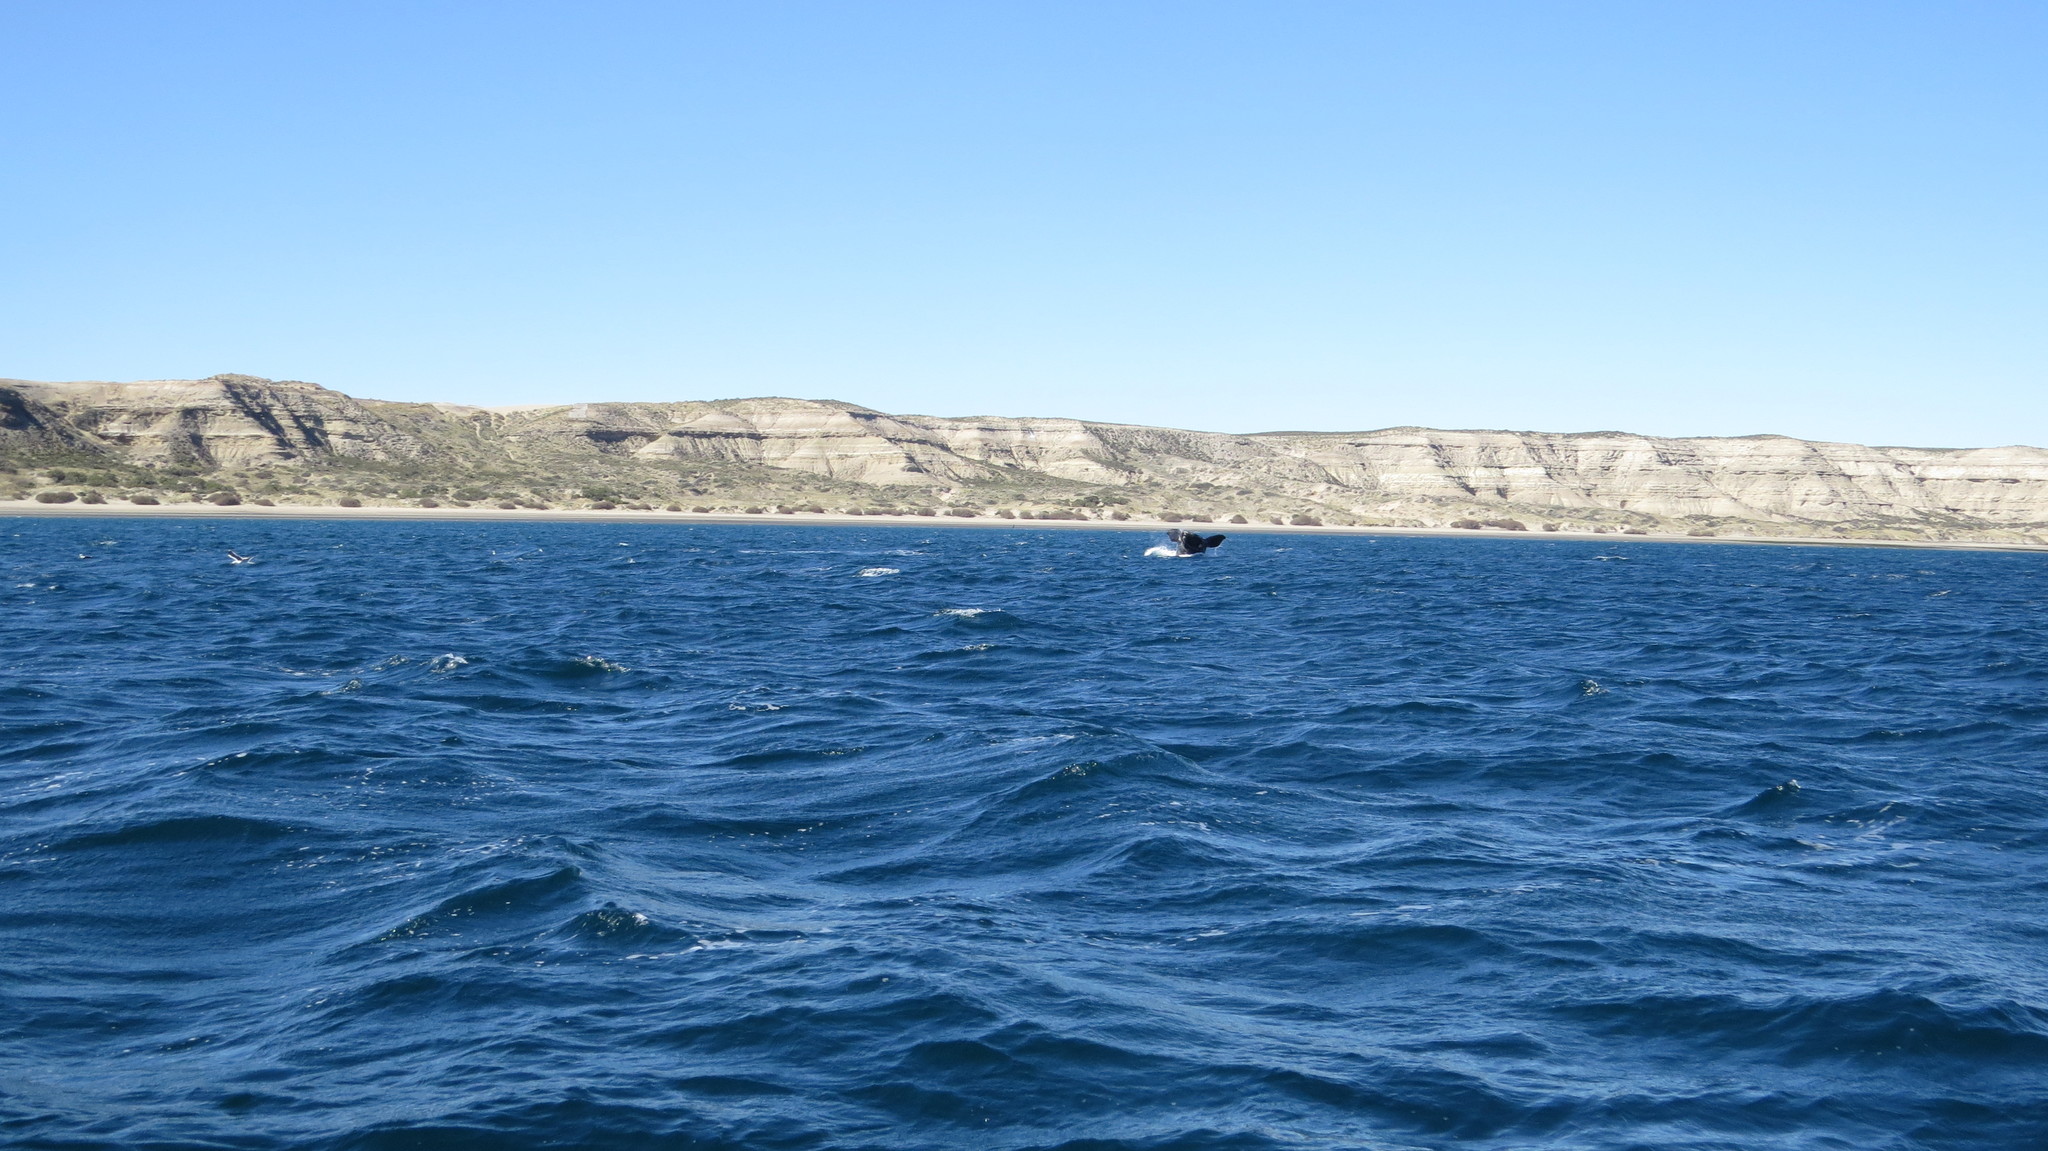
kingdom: Animalia
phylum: Chordata
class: Mammalia
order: Cetacea
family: Balaenidae
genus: Eubalaena
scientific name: Eubalaena australis
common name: Southern right whale
